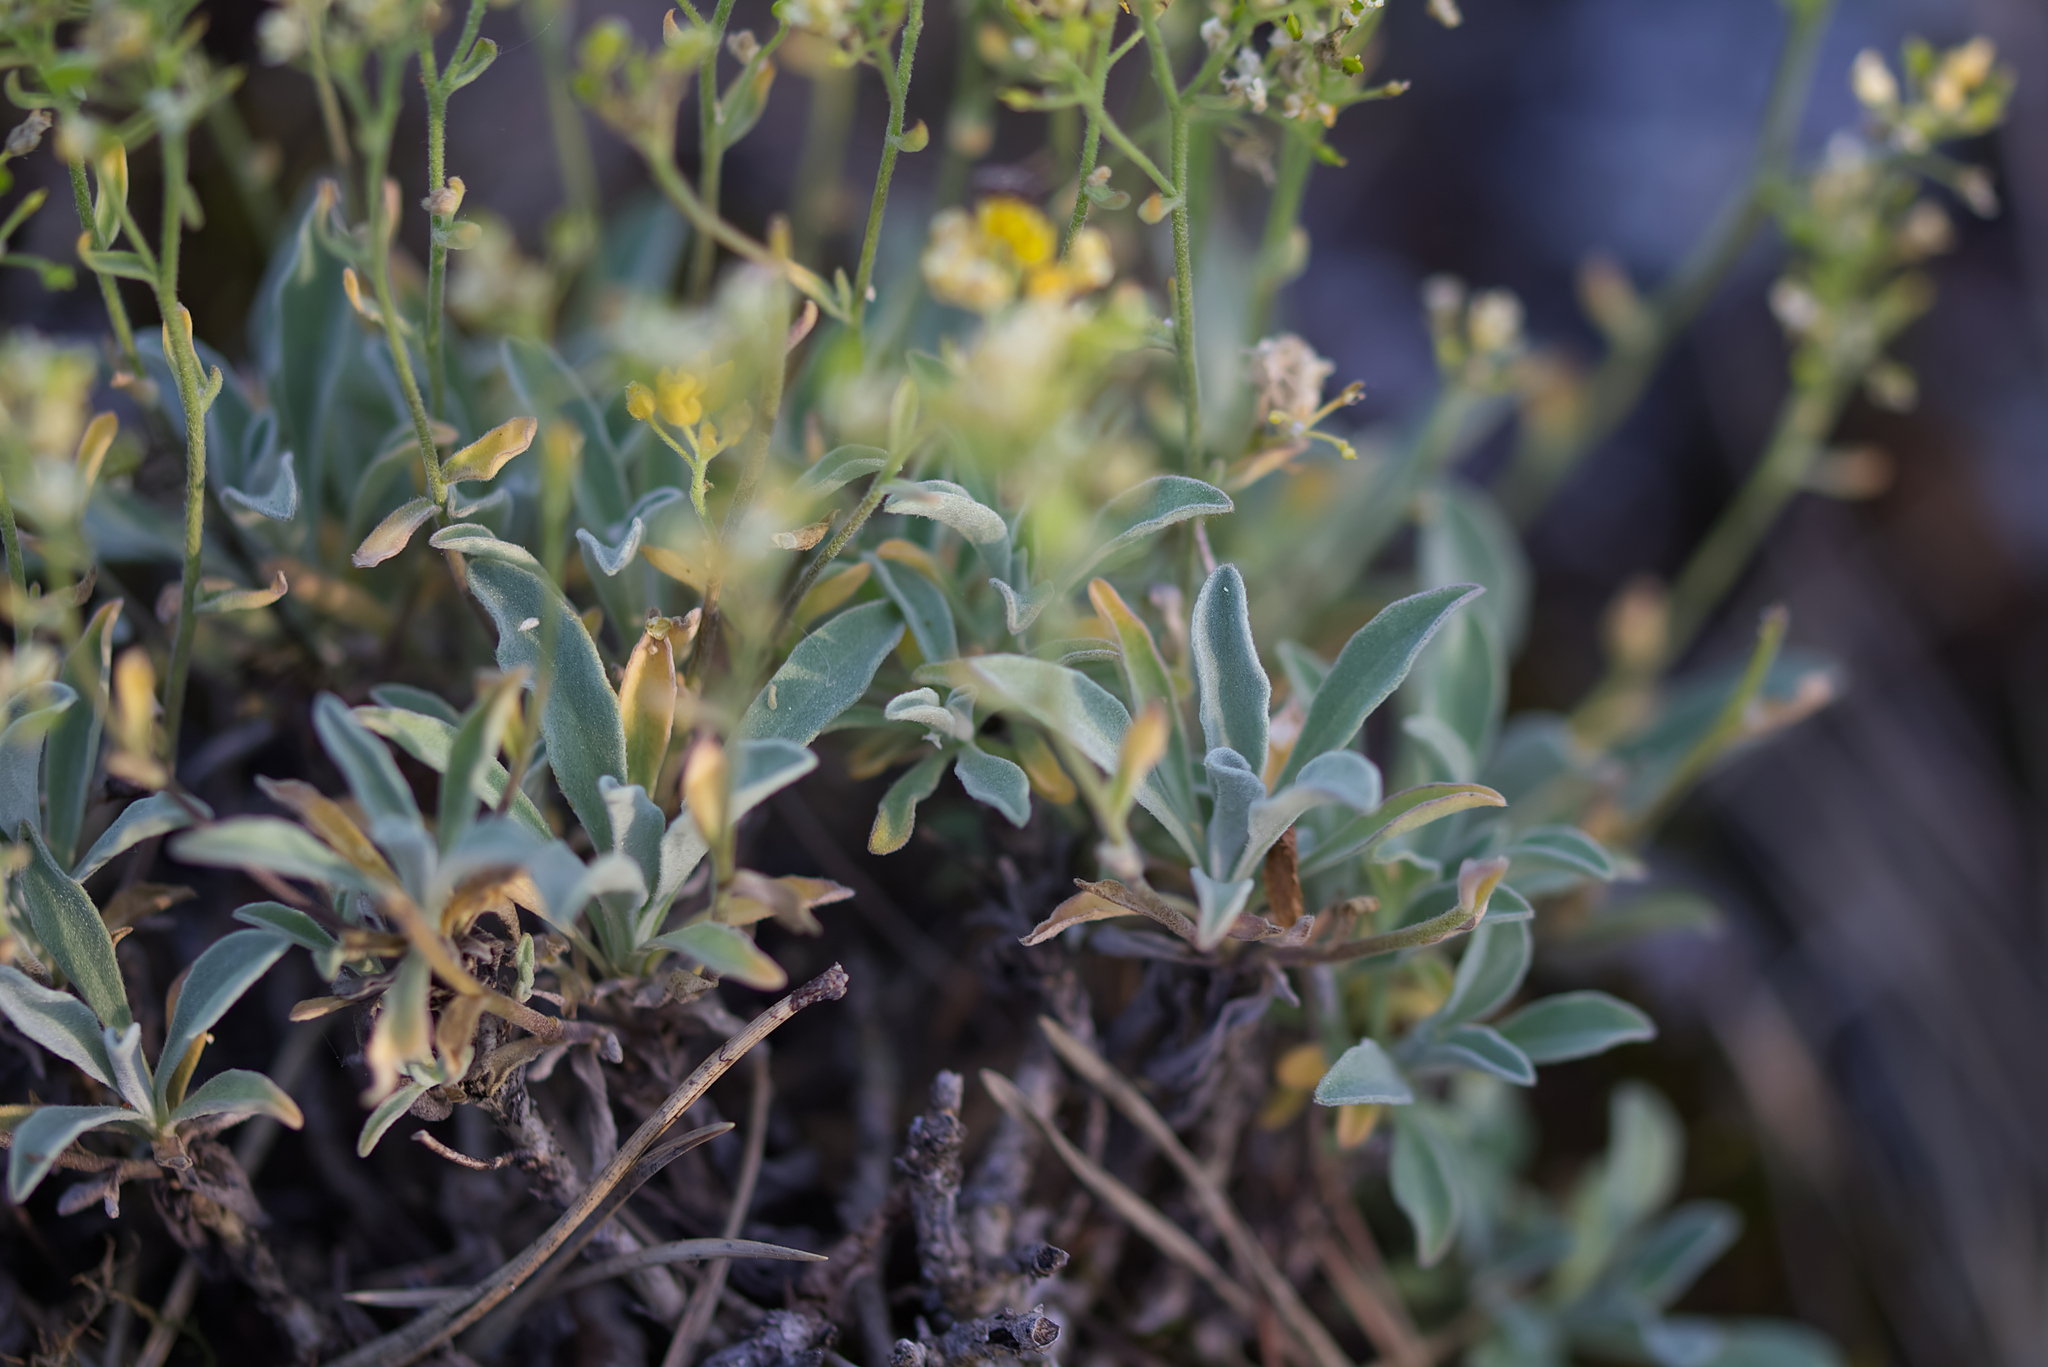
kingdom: Plantae
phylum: Tracheophyta
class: Magnoliopsida
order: Brassicales
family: Brassicaceae
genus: Aurinia
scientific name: Aurinia saxatilis
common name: Golden-tuft alyssum
